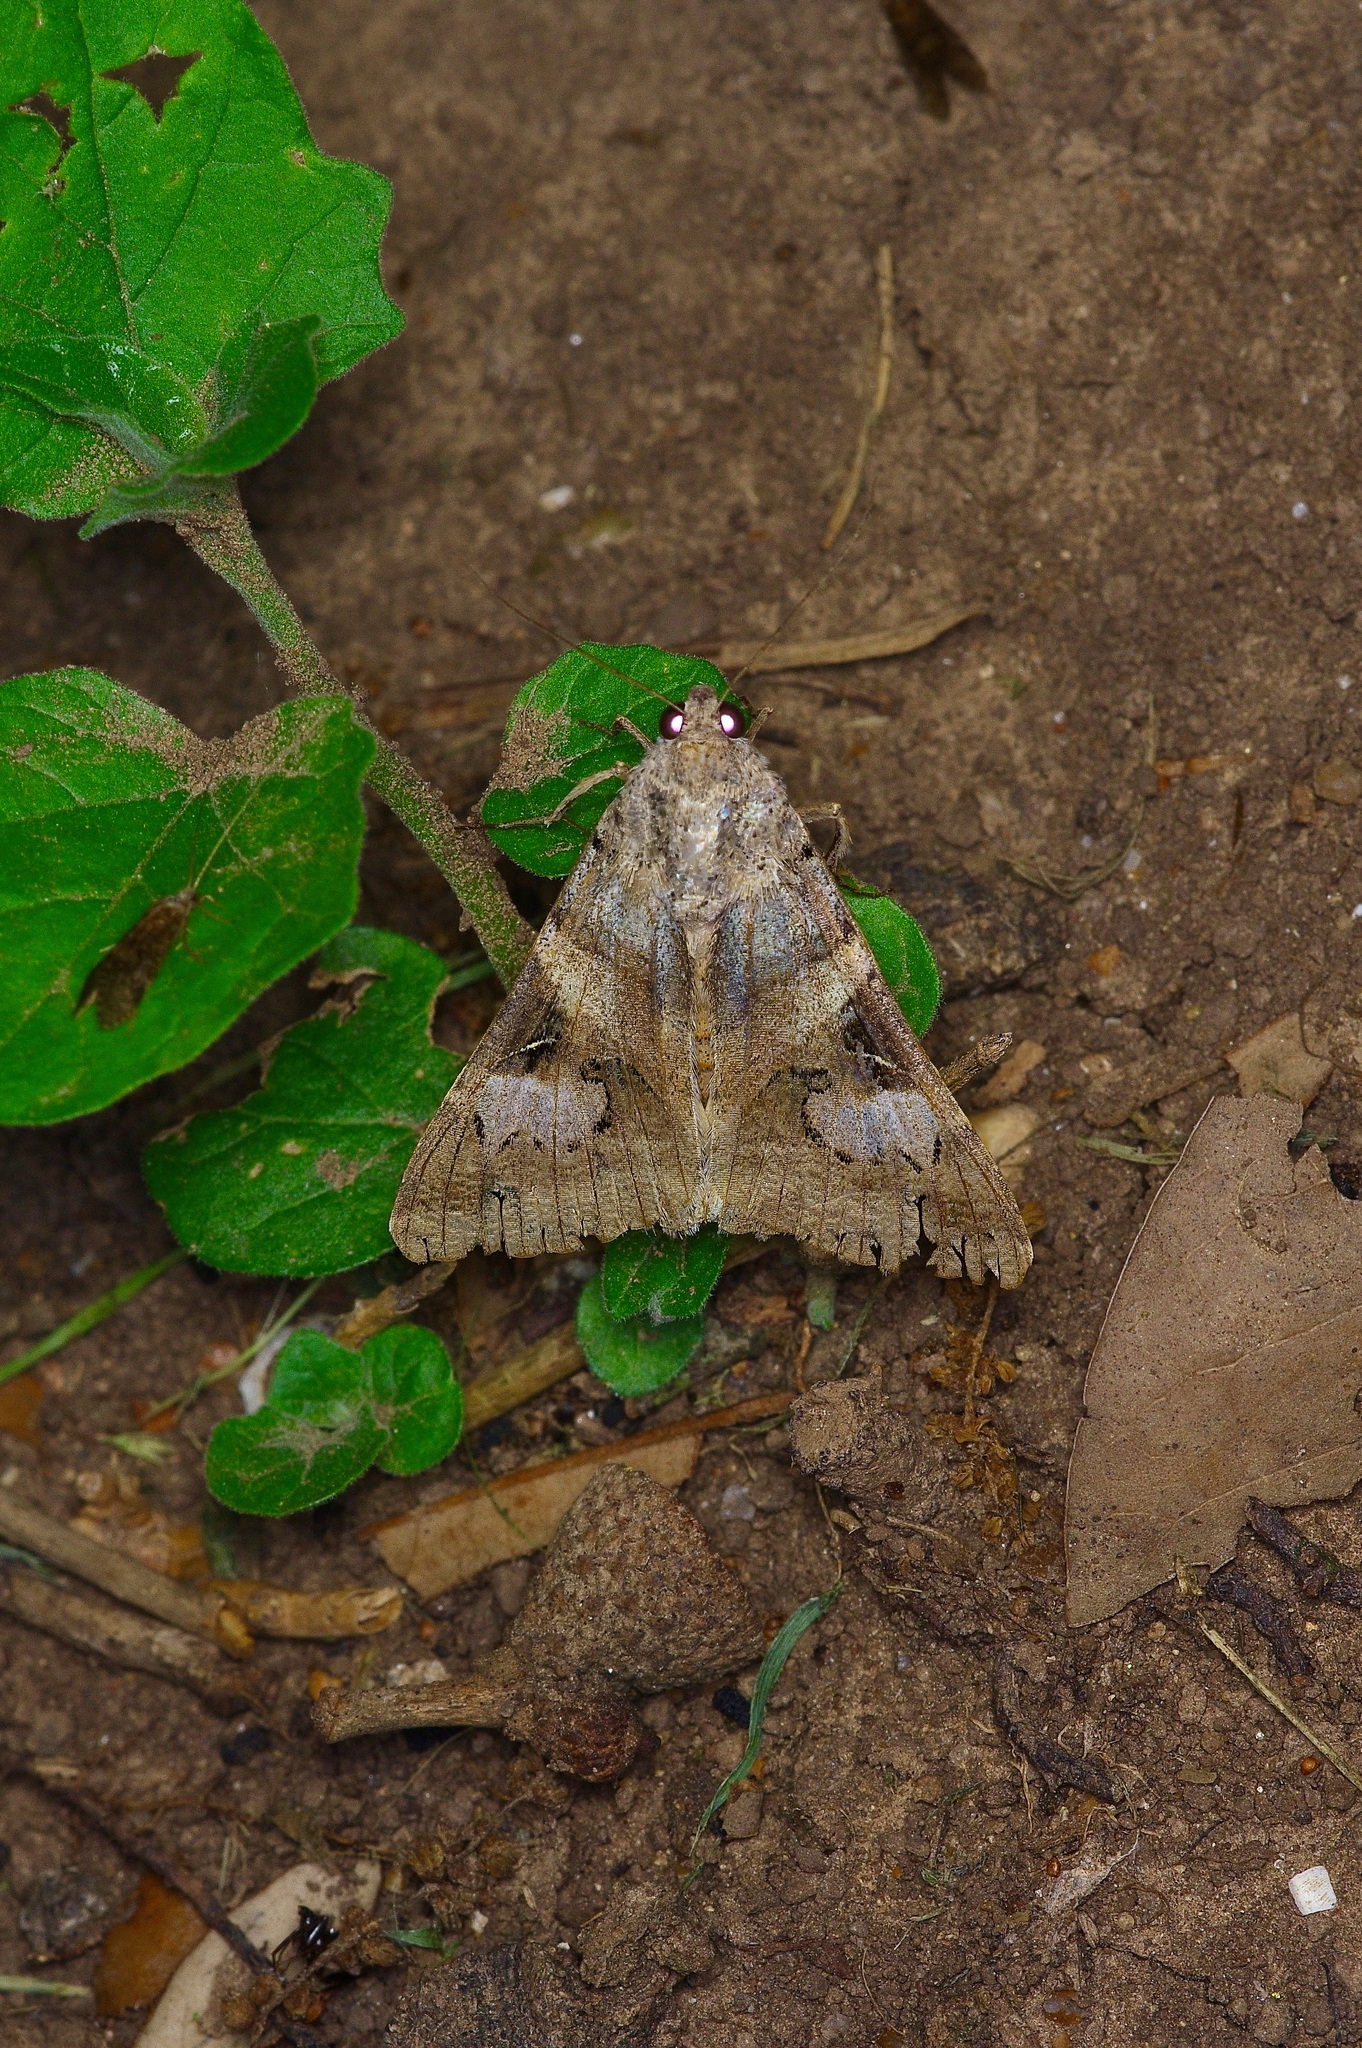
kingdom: Animalia
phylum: Arthropoda
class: Insecta
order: Lepidoptera
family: Erebidae
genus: Melipotis
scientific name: Melipotis indomita
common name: Moth
